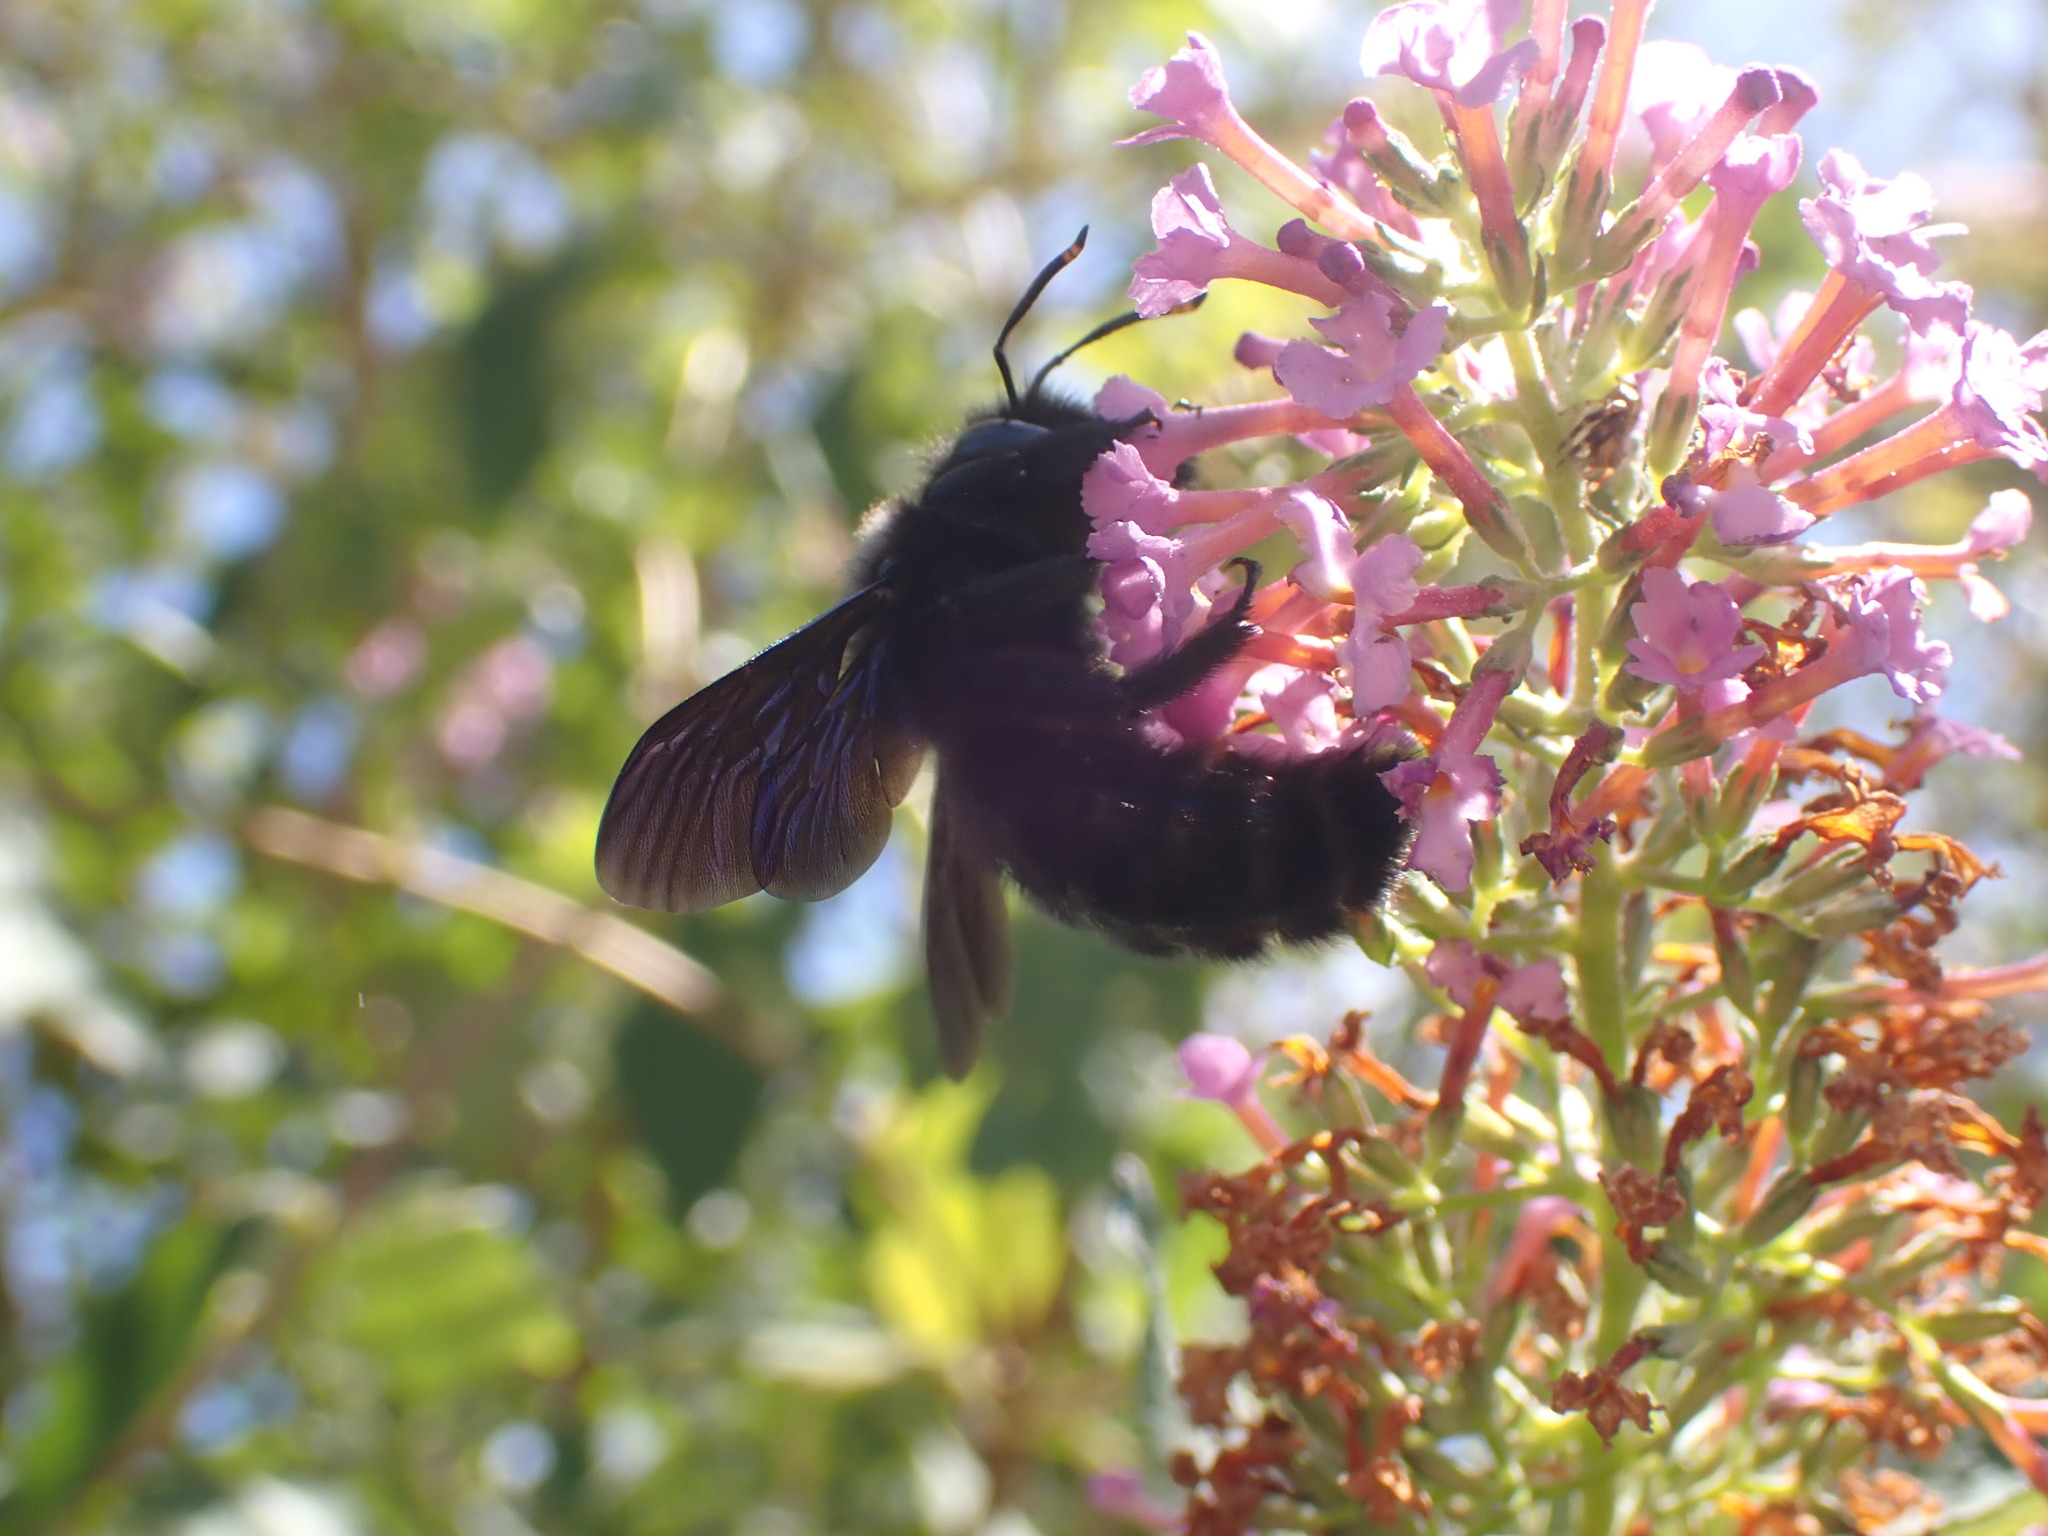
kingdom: Animalia
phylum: Arthropoda
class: Insecta
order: Hymenoptera
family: Apidae
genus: Xylocopa
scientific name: Xylocopa violacea
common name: Violet carpenter bee
